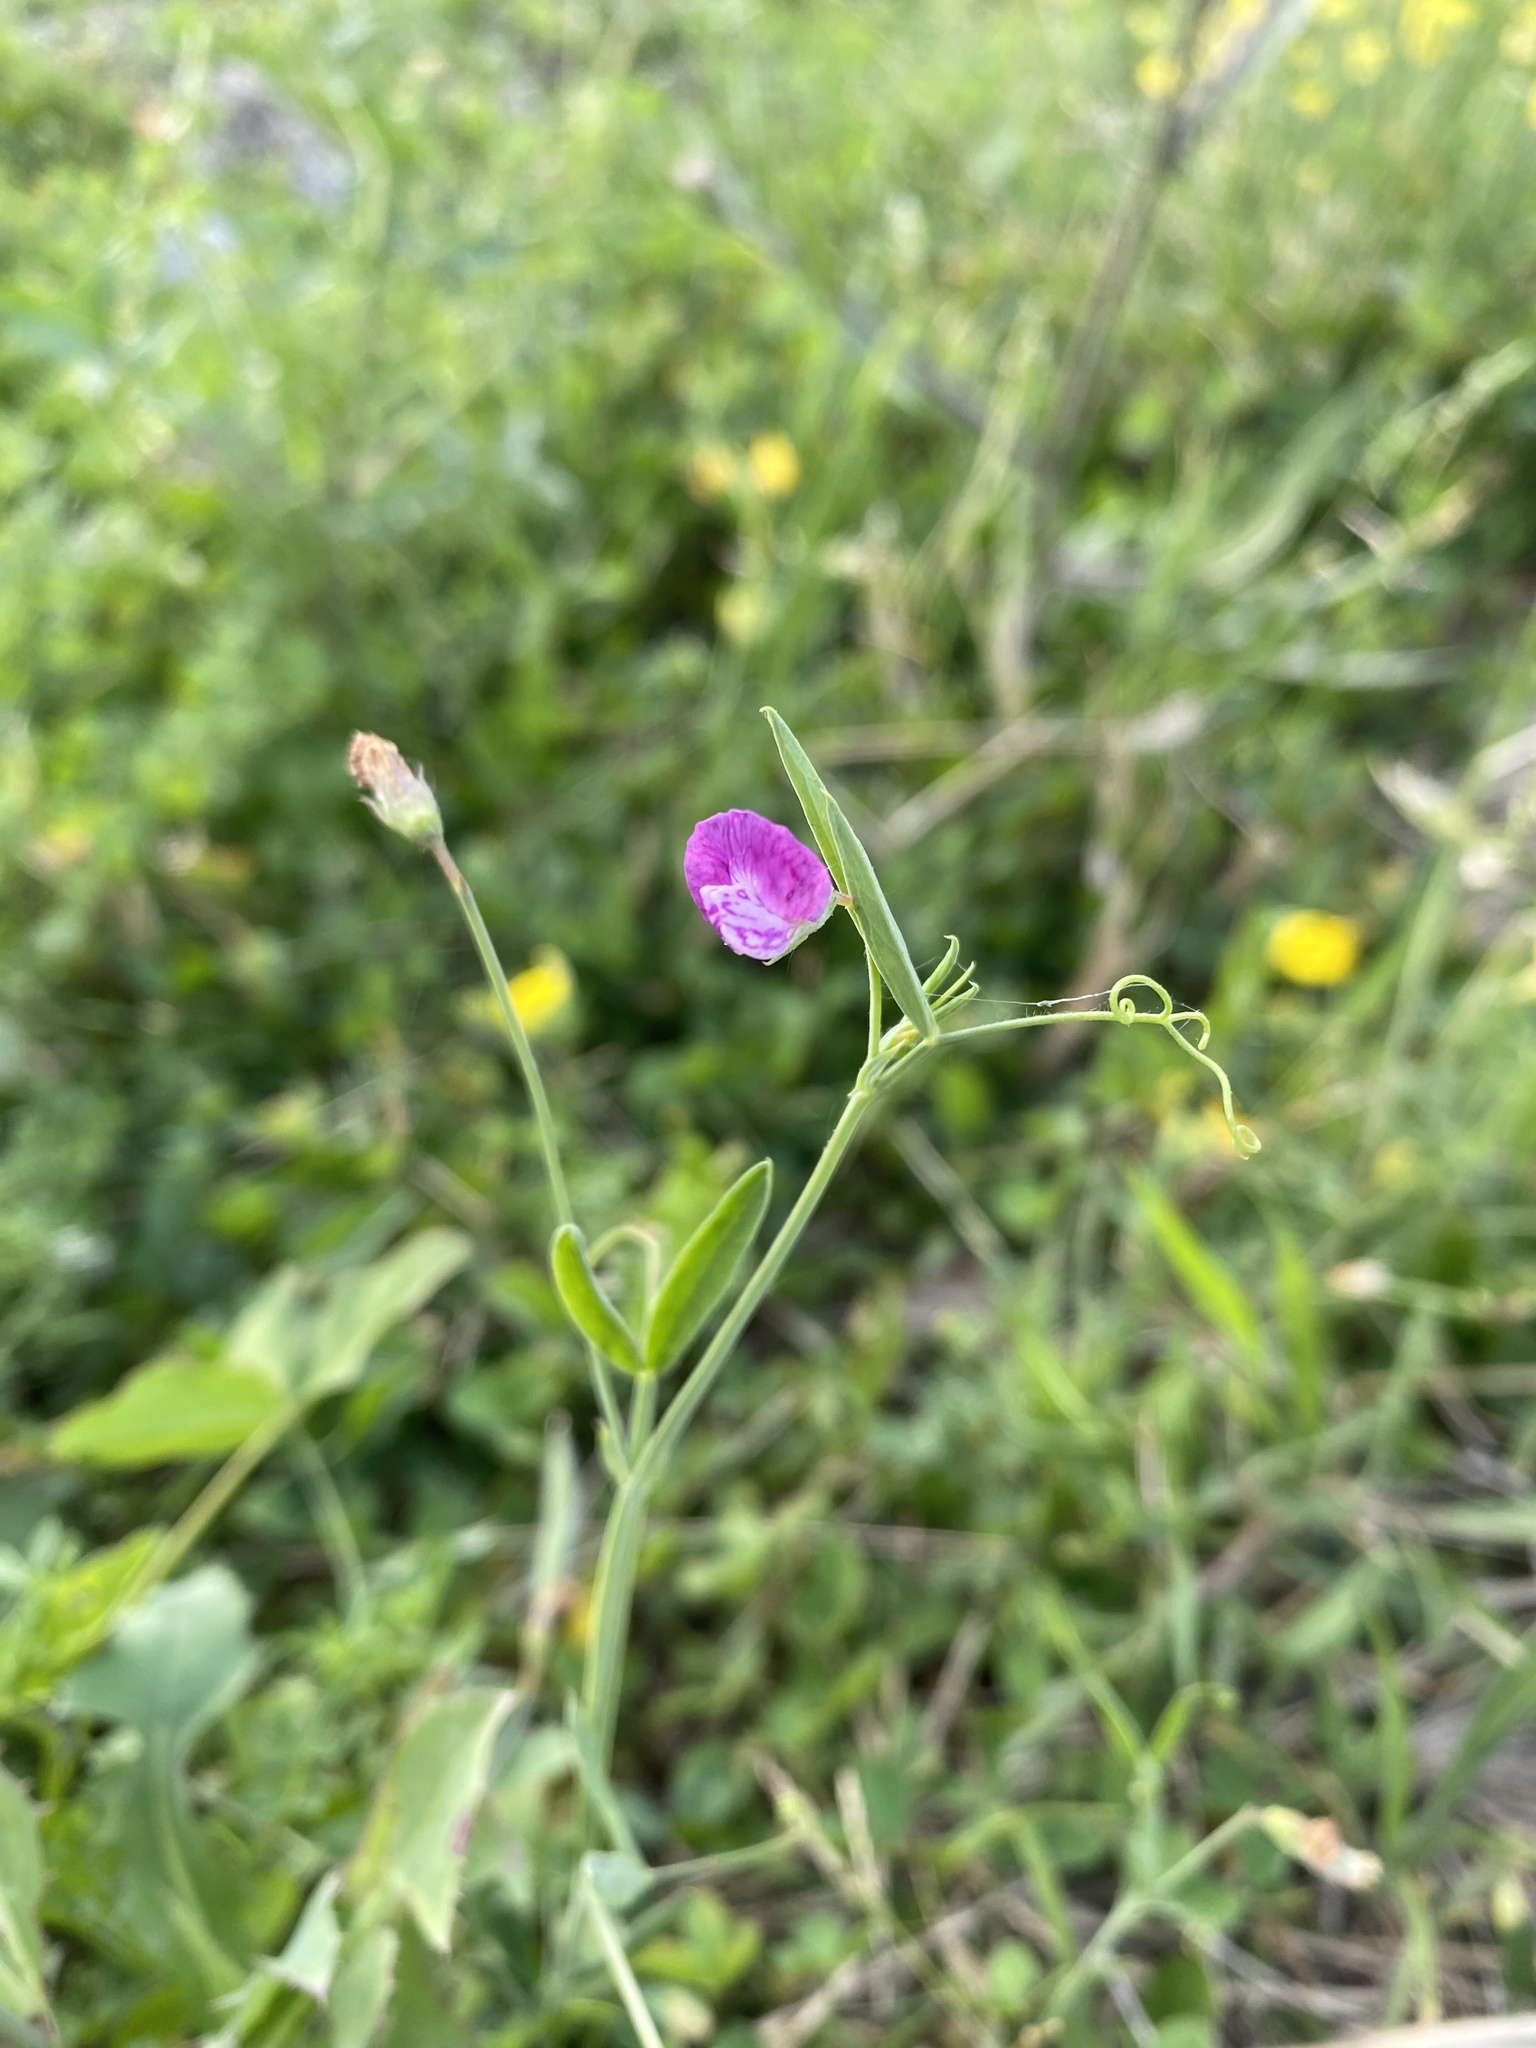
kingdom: Plantae
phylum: Tracheophyta
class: Magnoliopsida
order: Fabales
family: Fabaceae
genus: Lathyrus
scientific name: Lathyrus hirsutus
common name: Hairy vetchling
